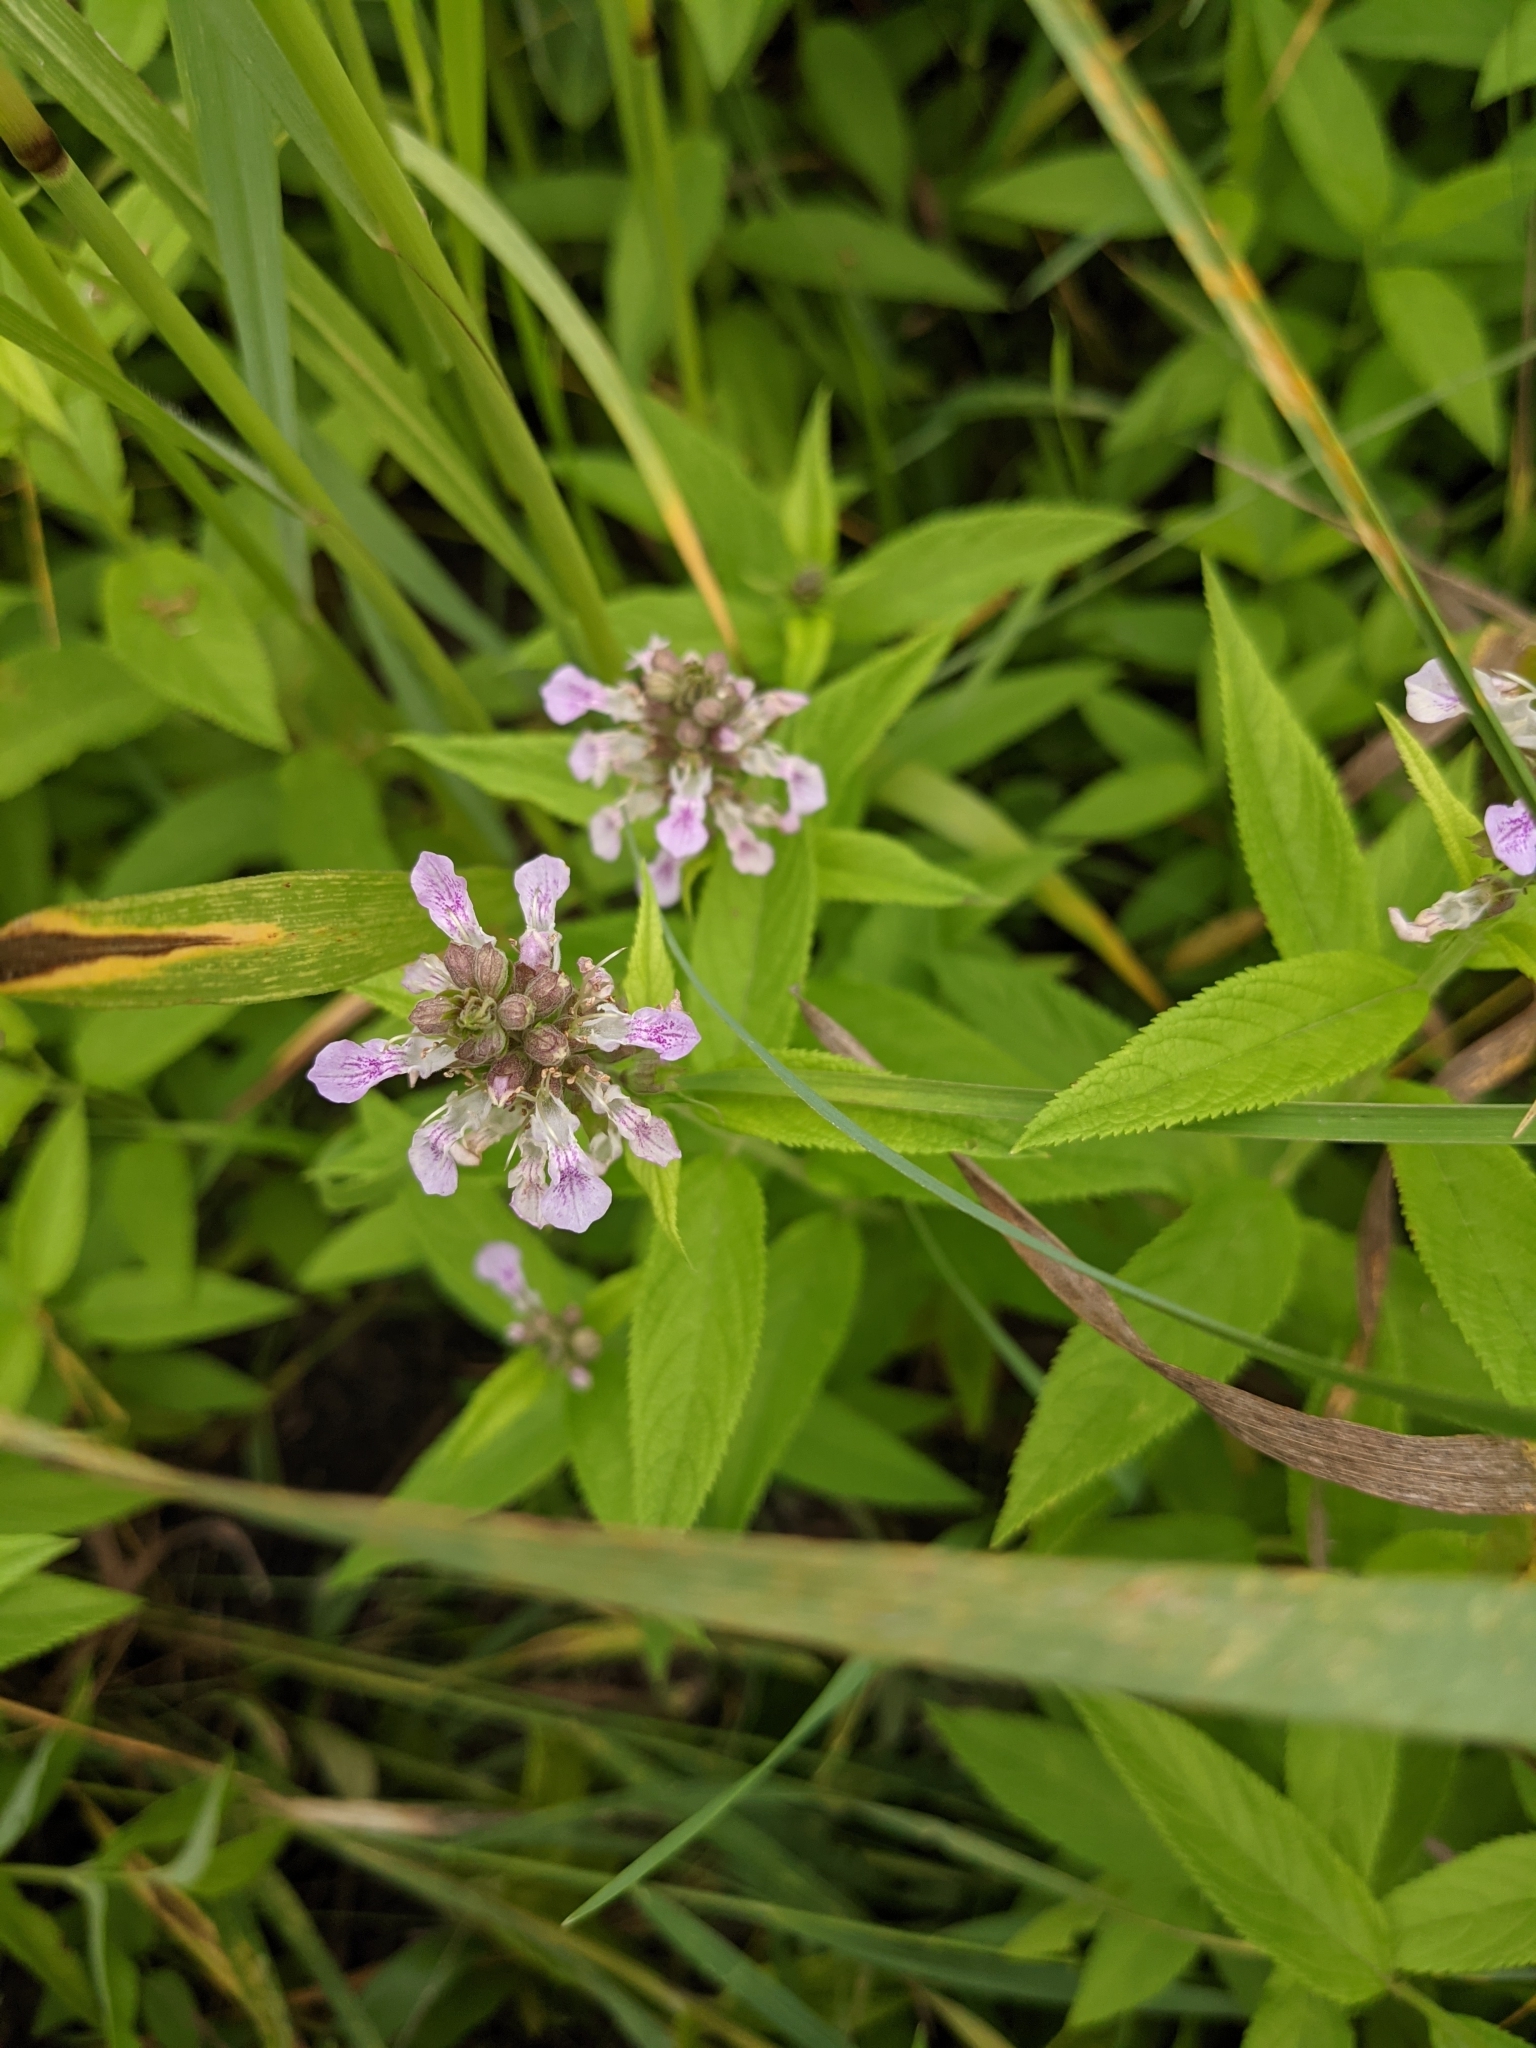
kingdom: Plantae
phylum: Tracheophyta
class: Magnoliopsida
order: Lamiales
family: Lamiaceae
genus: Teucrium
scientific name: Teucrium canadense
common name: American germander
